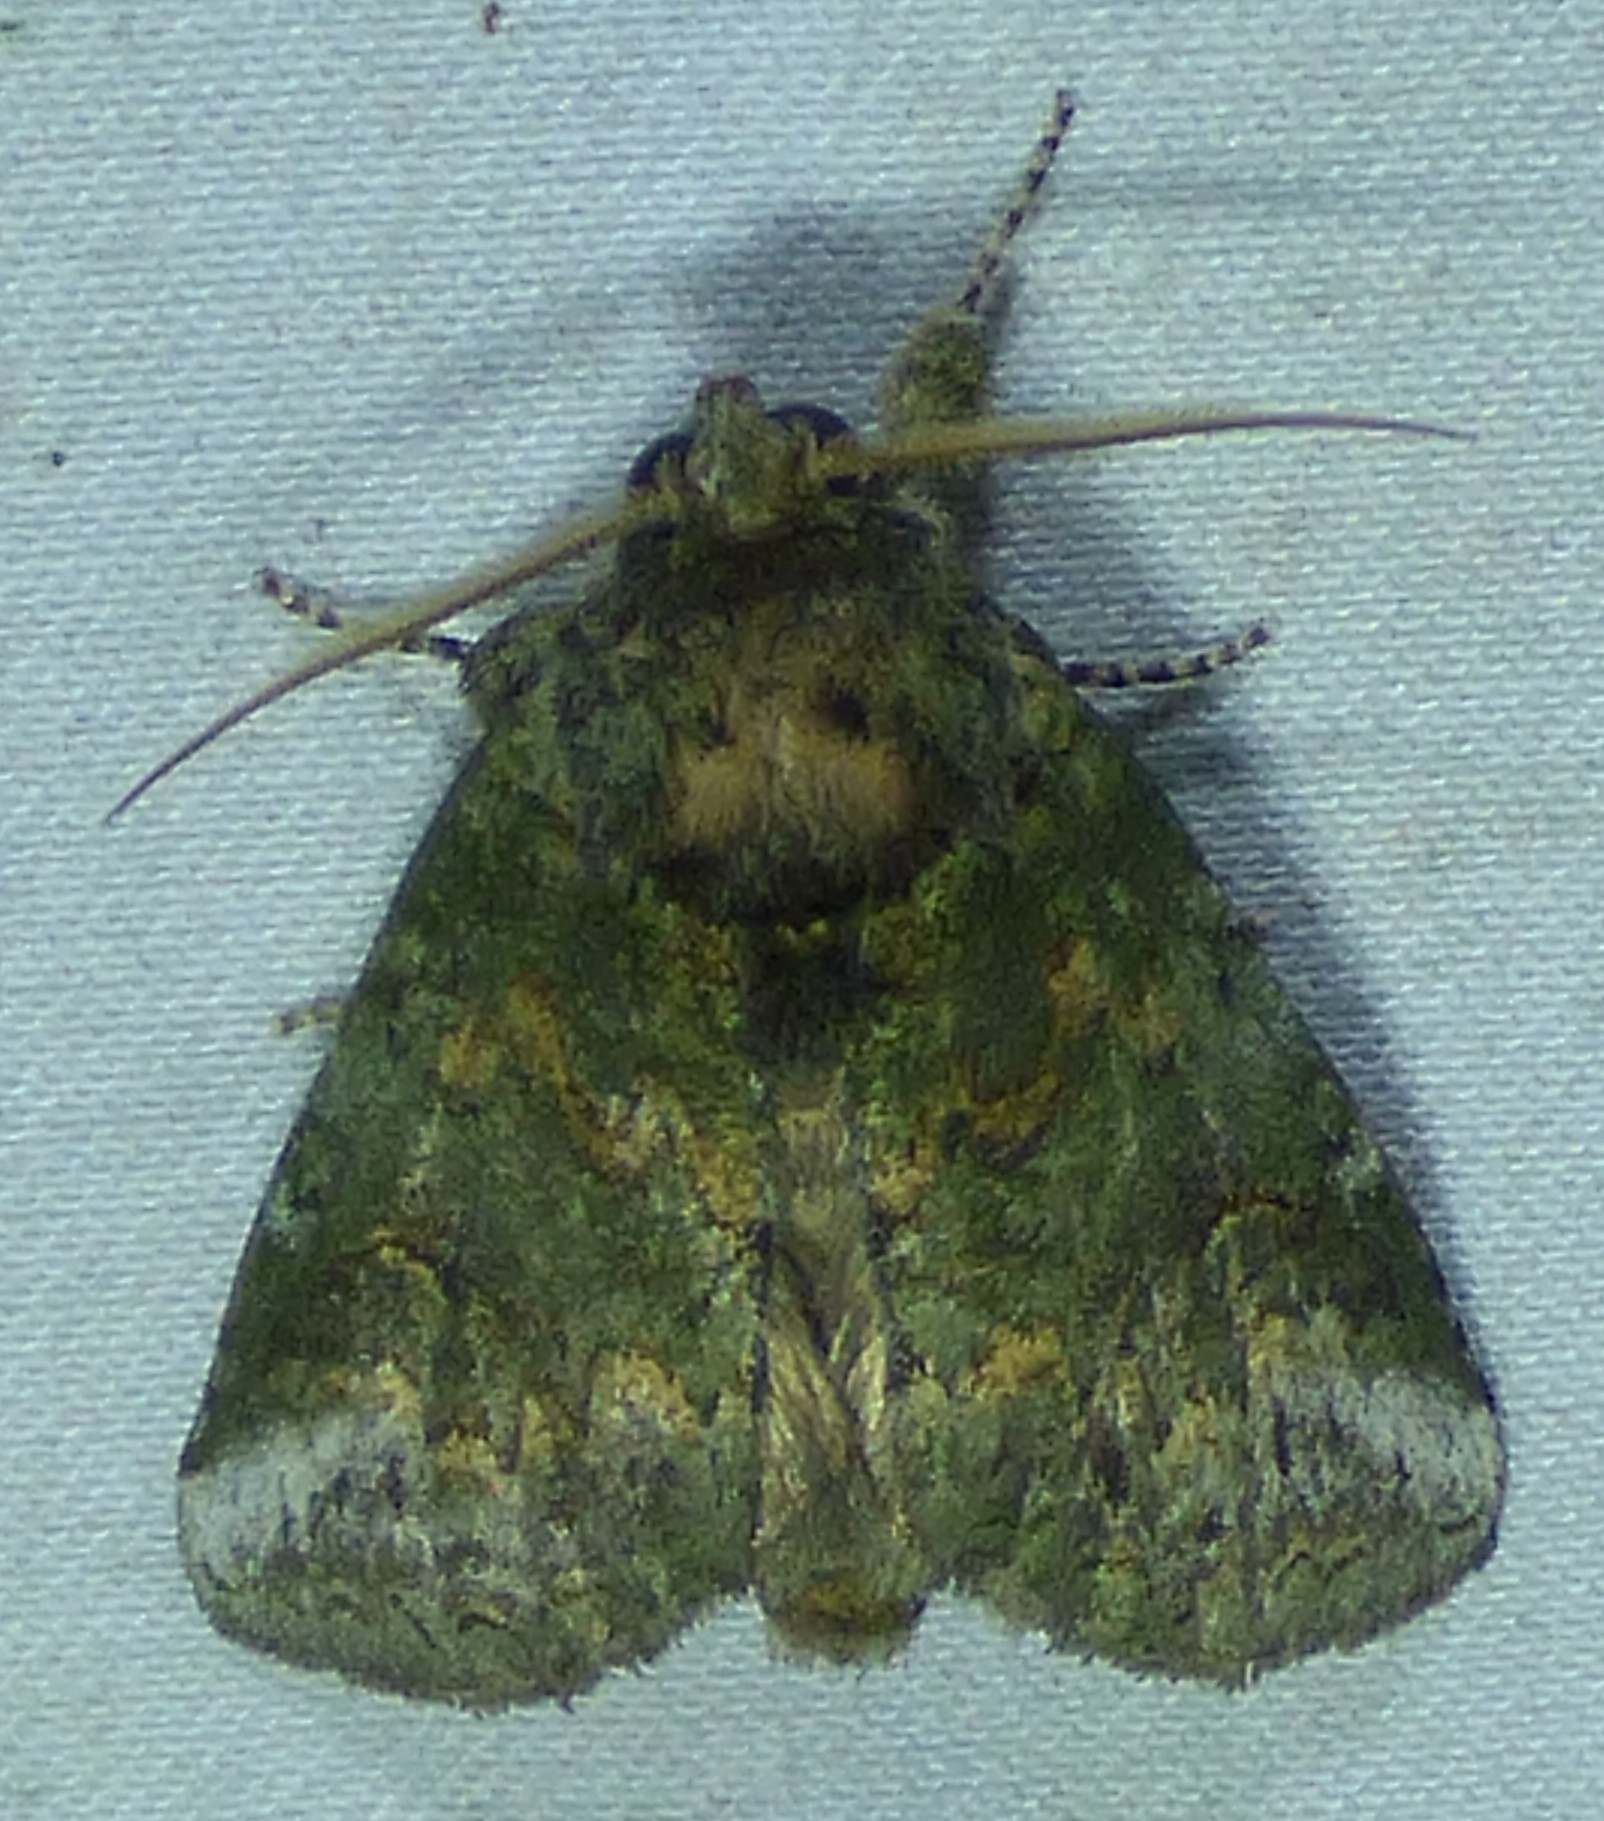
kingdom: Animalia
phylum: Arthropoda
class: Insecta
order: Lepidoptera
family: Notodontidae
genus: Disphragis
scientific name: Disphragis Cecrita biundata
